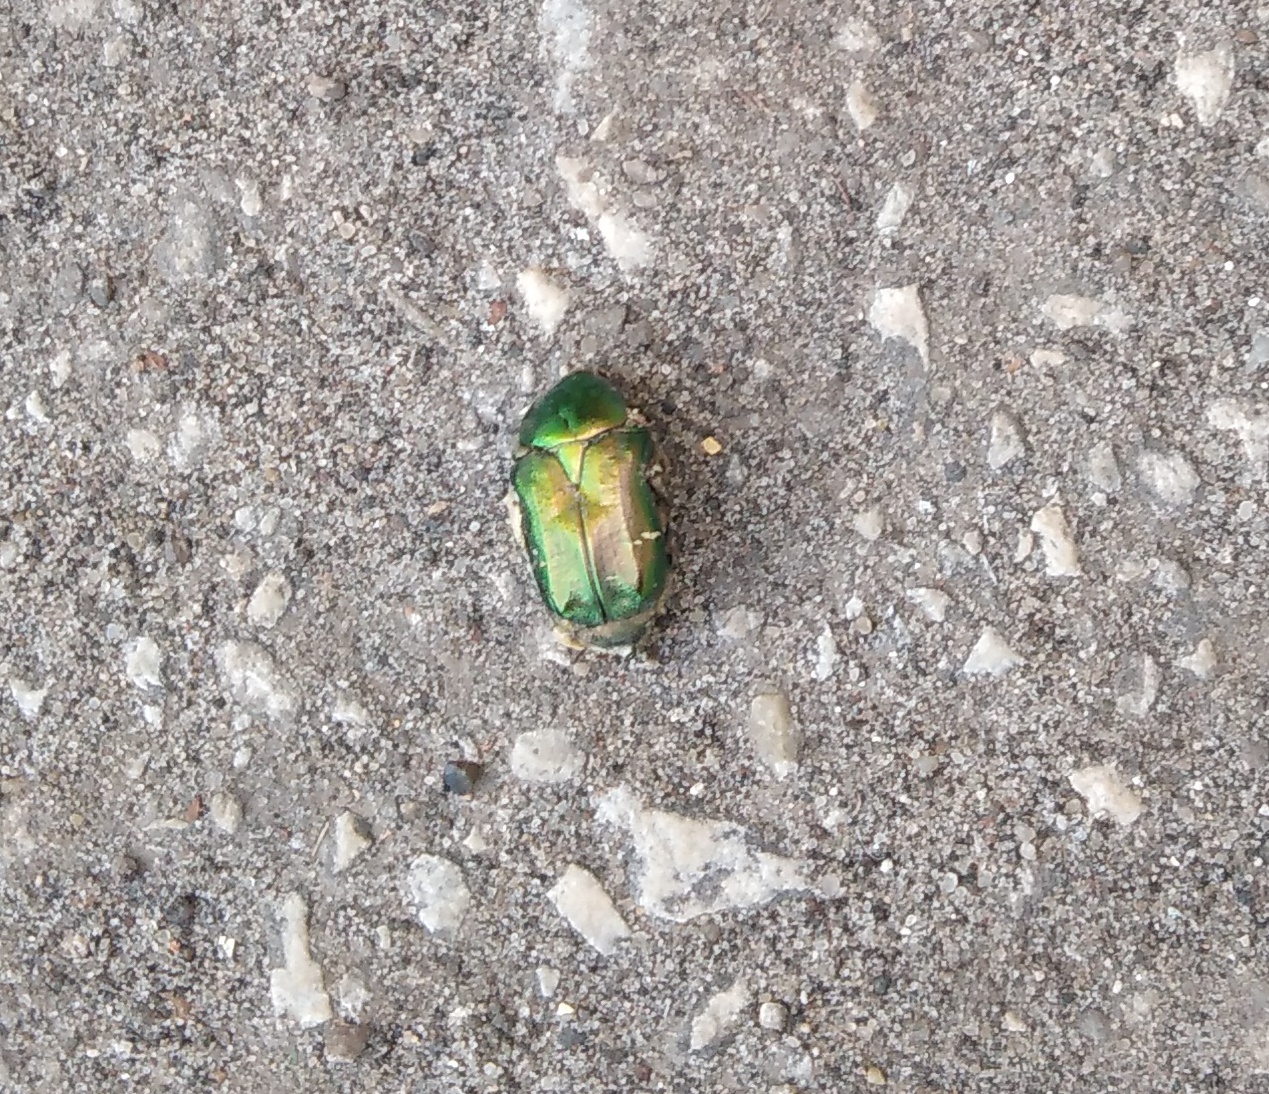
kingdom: Animalia
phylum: Arthropoda
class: Insecta
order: Coleoptera
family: Scarabaeidae
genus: Cetonia
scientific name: Cetonia aurata
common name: Rose chafer
